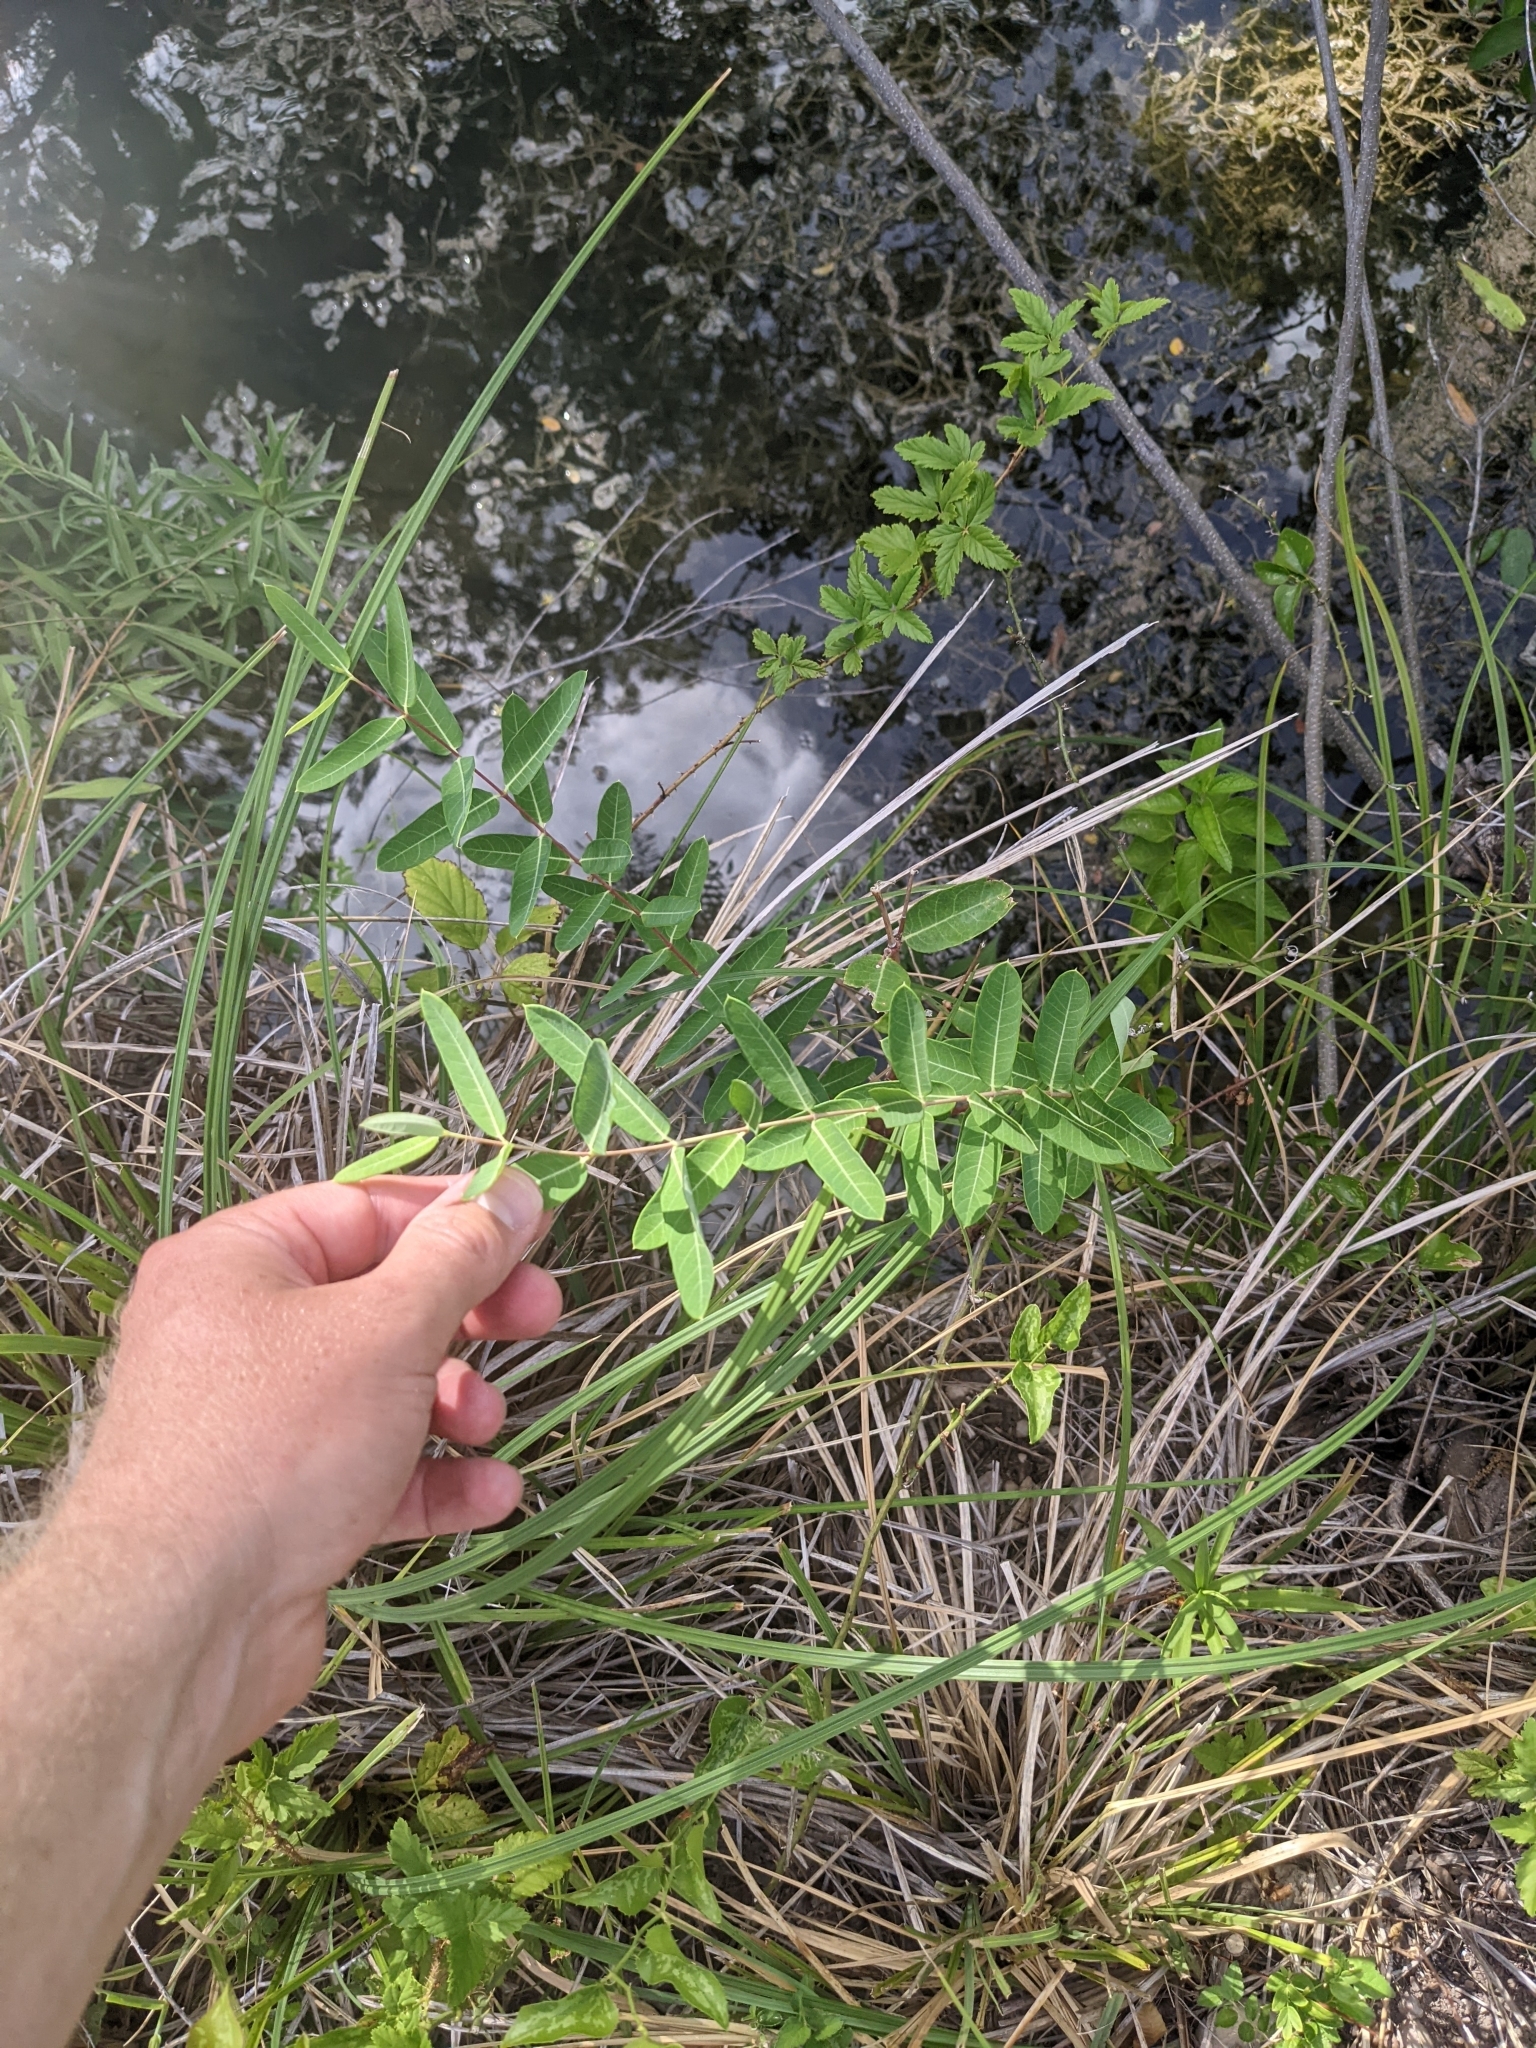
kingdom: Plantae
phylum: Tracheophyta
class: Magnoliopsida
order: Gentianales
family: Apocynaceae
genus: Apocynum
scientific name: Apocynum cannabinum
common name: Hemp dogbane
